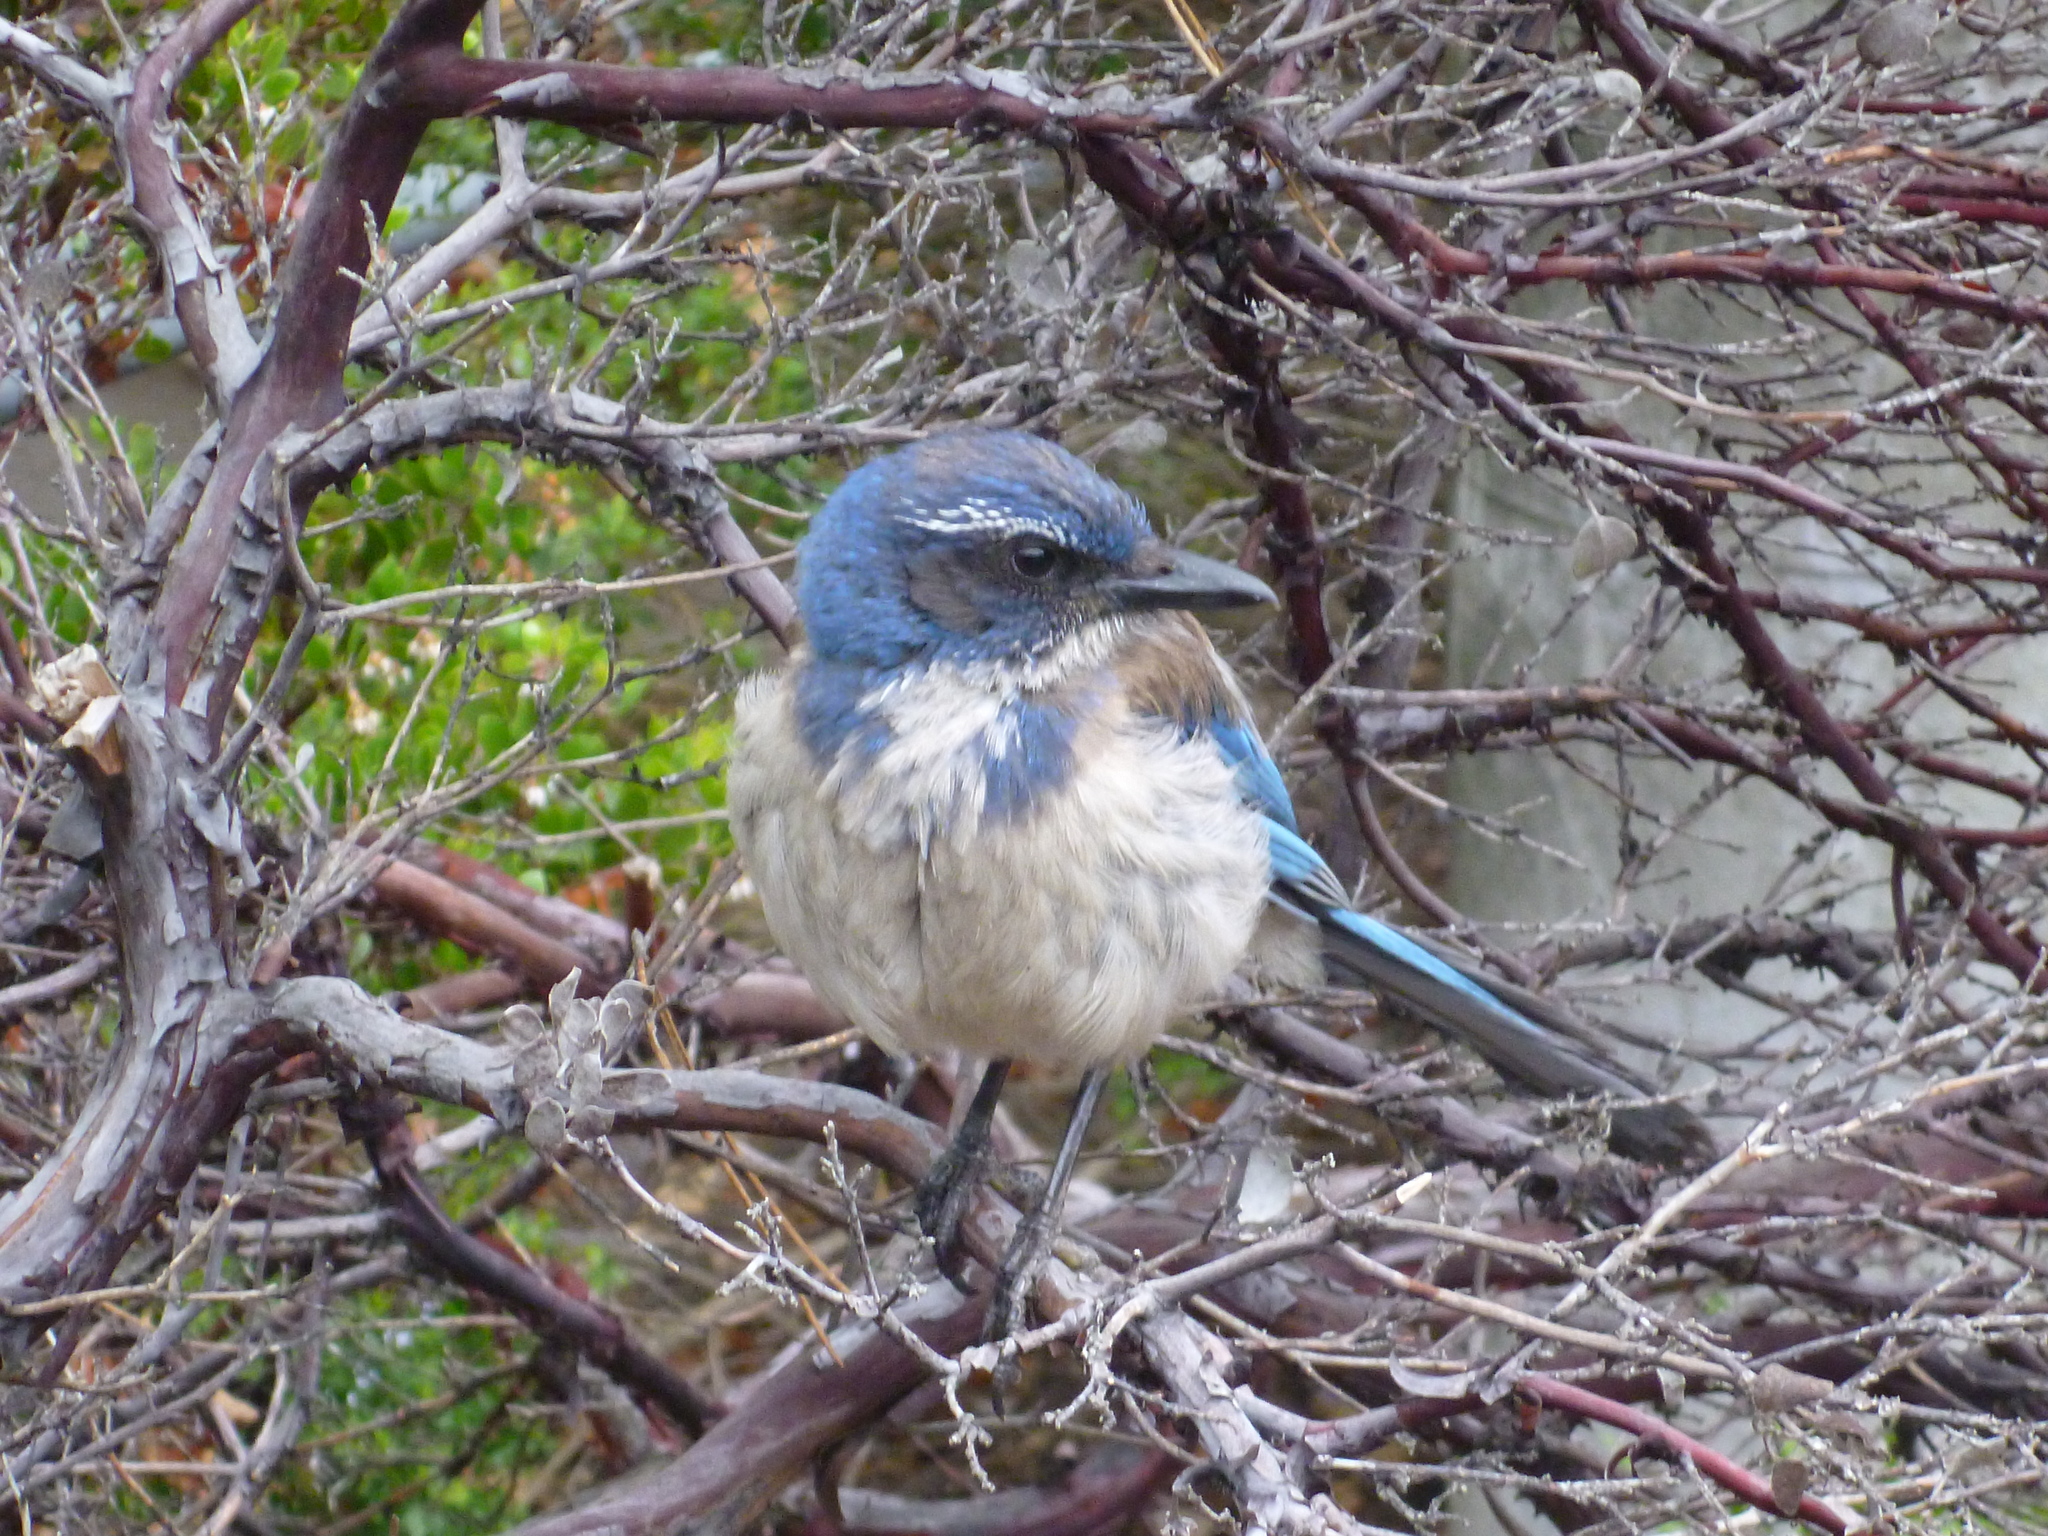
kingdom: Animalia
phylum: Chordata
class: Aves
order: Passeriformes
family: Corvidae
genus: Aphelocoma
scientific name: Aphelocoma californica
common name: California scrub-jay
